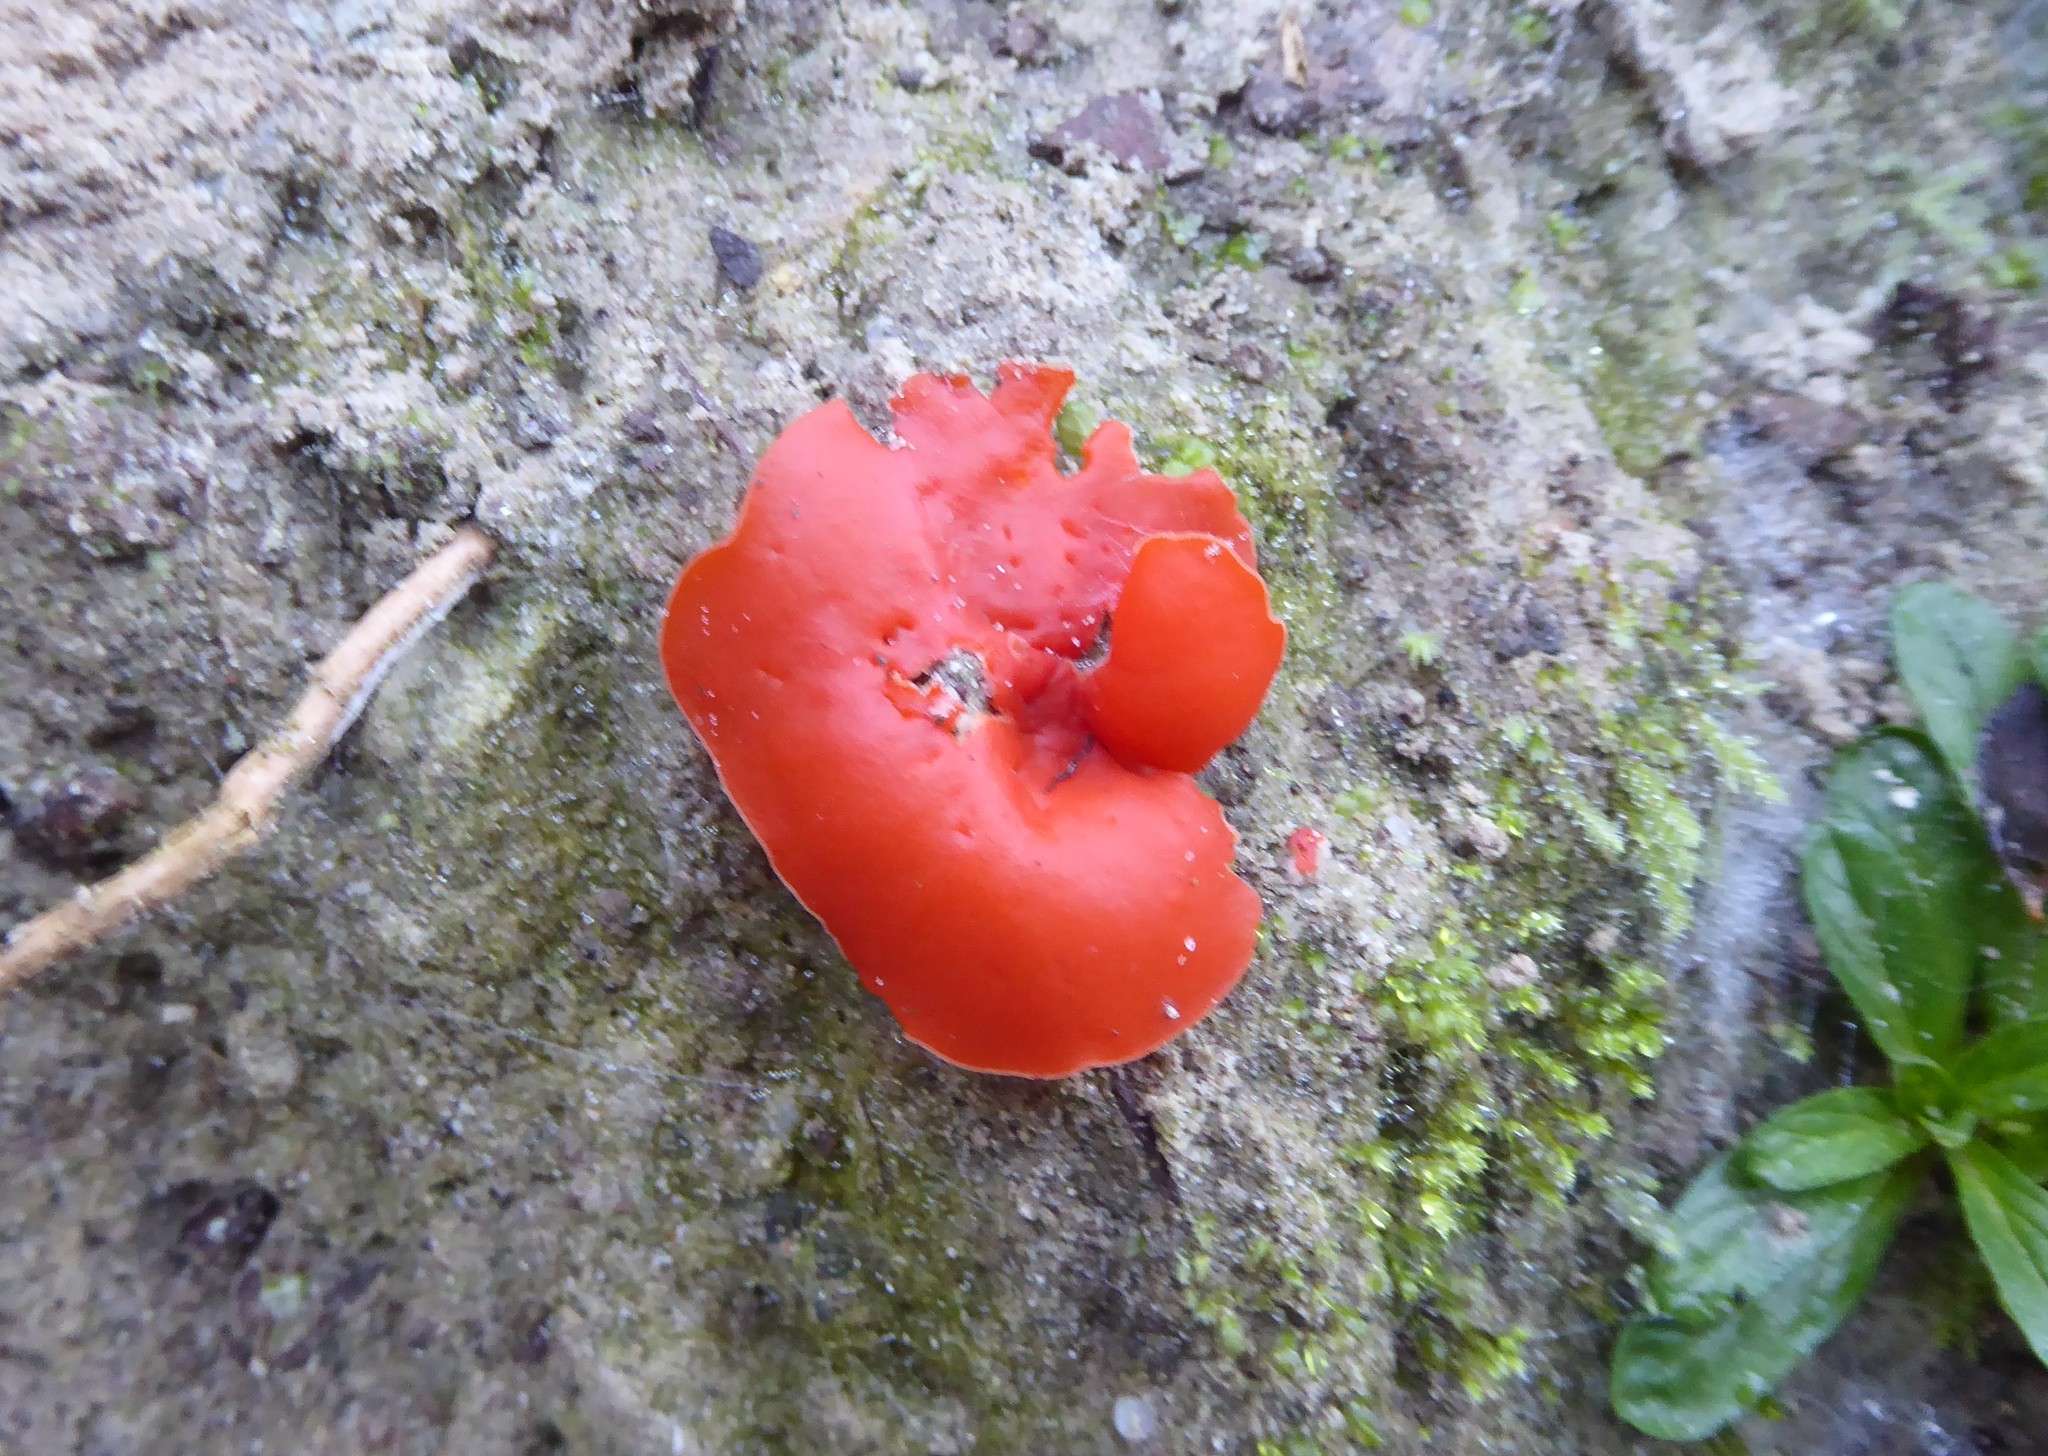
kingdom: Fungi
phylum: Ascomycota
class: Pezizomycetes
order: Pezizales
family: Pyronemataceae
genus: Aleuria
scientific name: Aleuria aurantia
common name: Orange peel fungus
